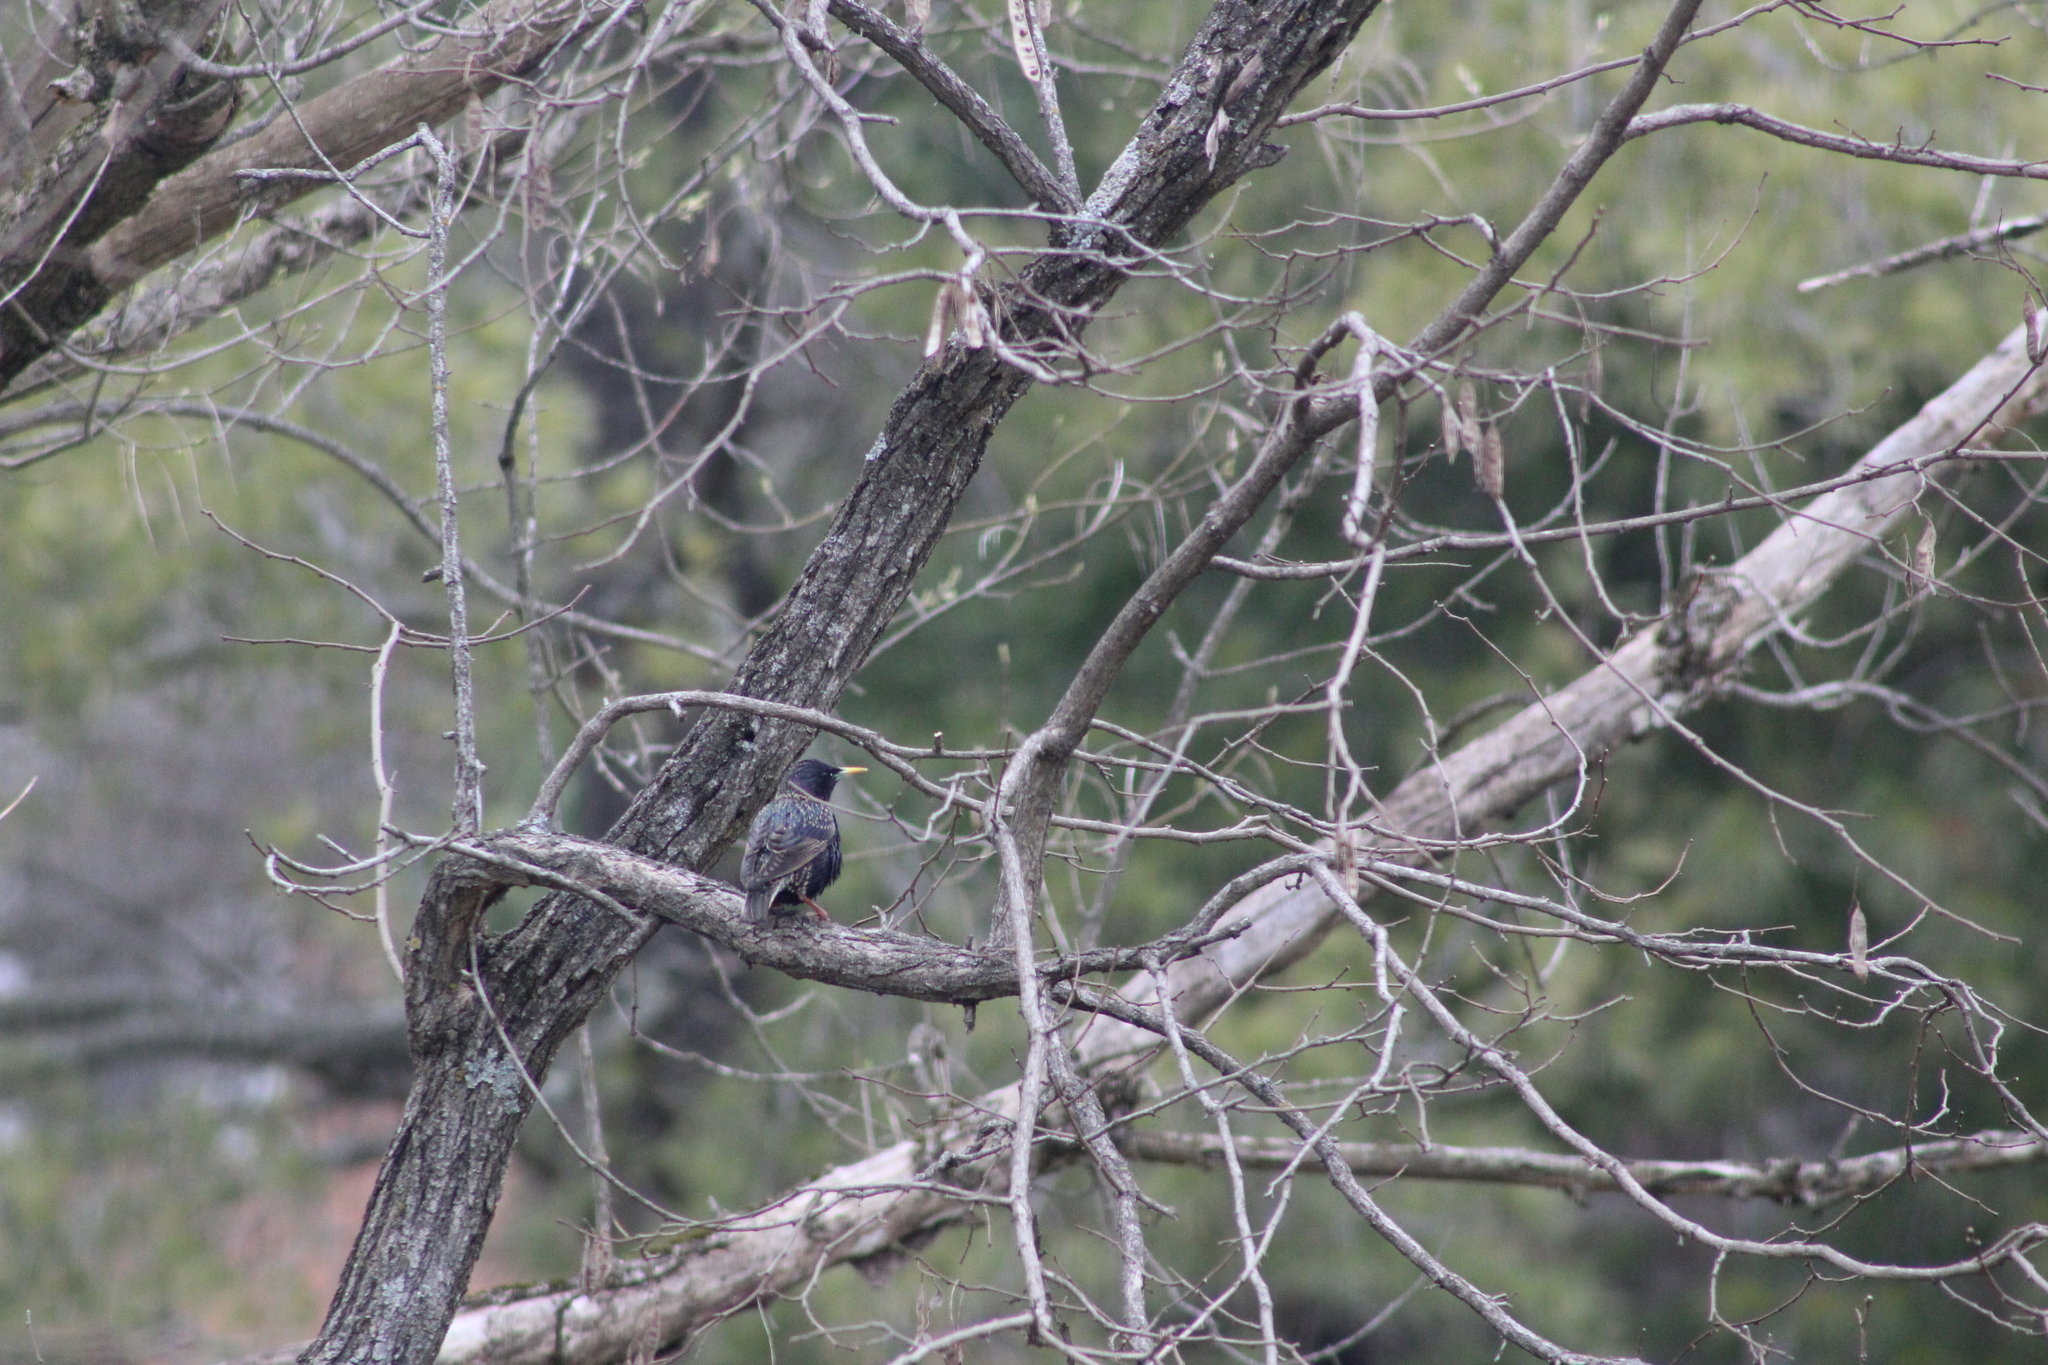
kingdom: Animalia
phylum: Chordata
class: Aves
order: Passeriformes
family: Sturnidae
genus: Sturnus
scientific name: Sturnus vulgaris
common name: Common starling
